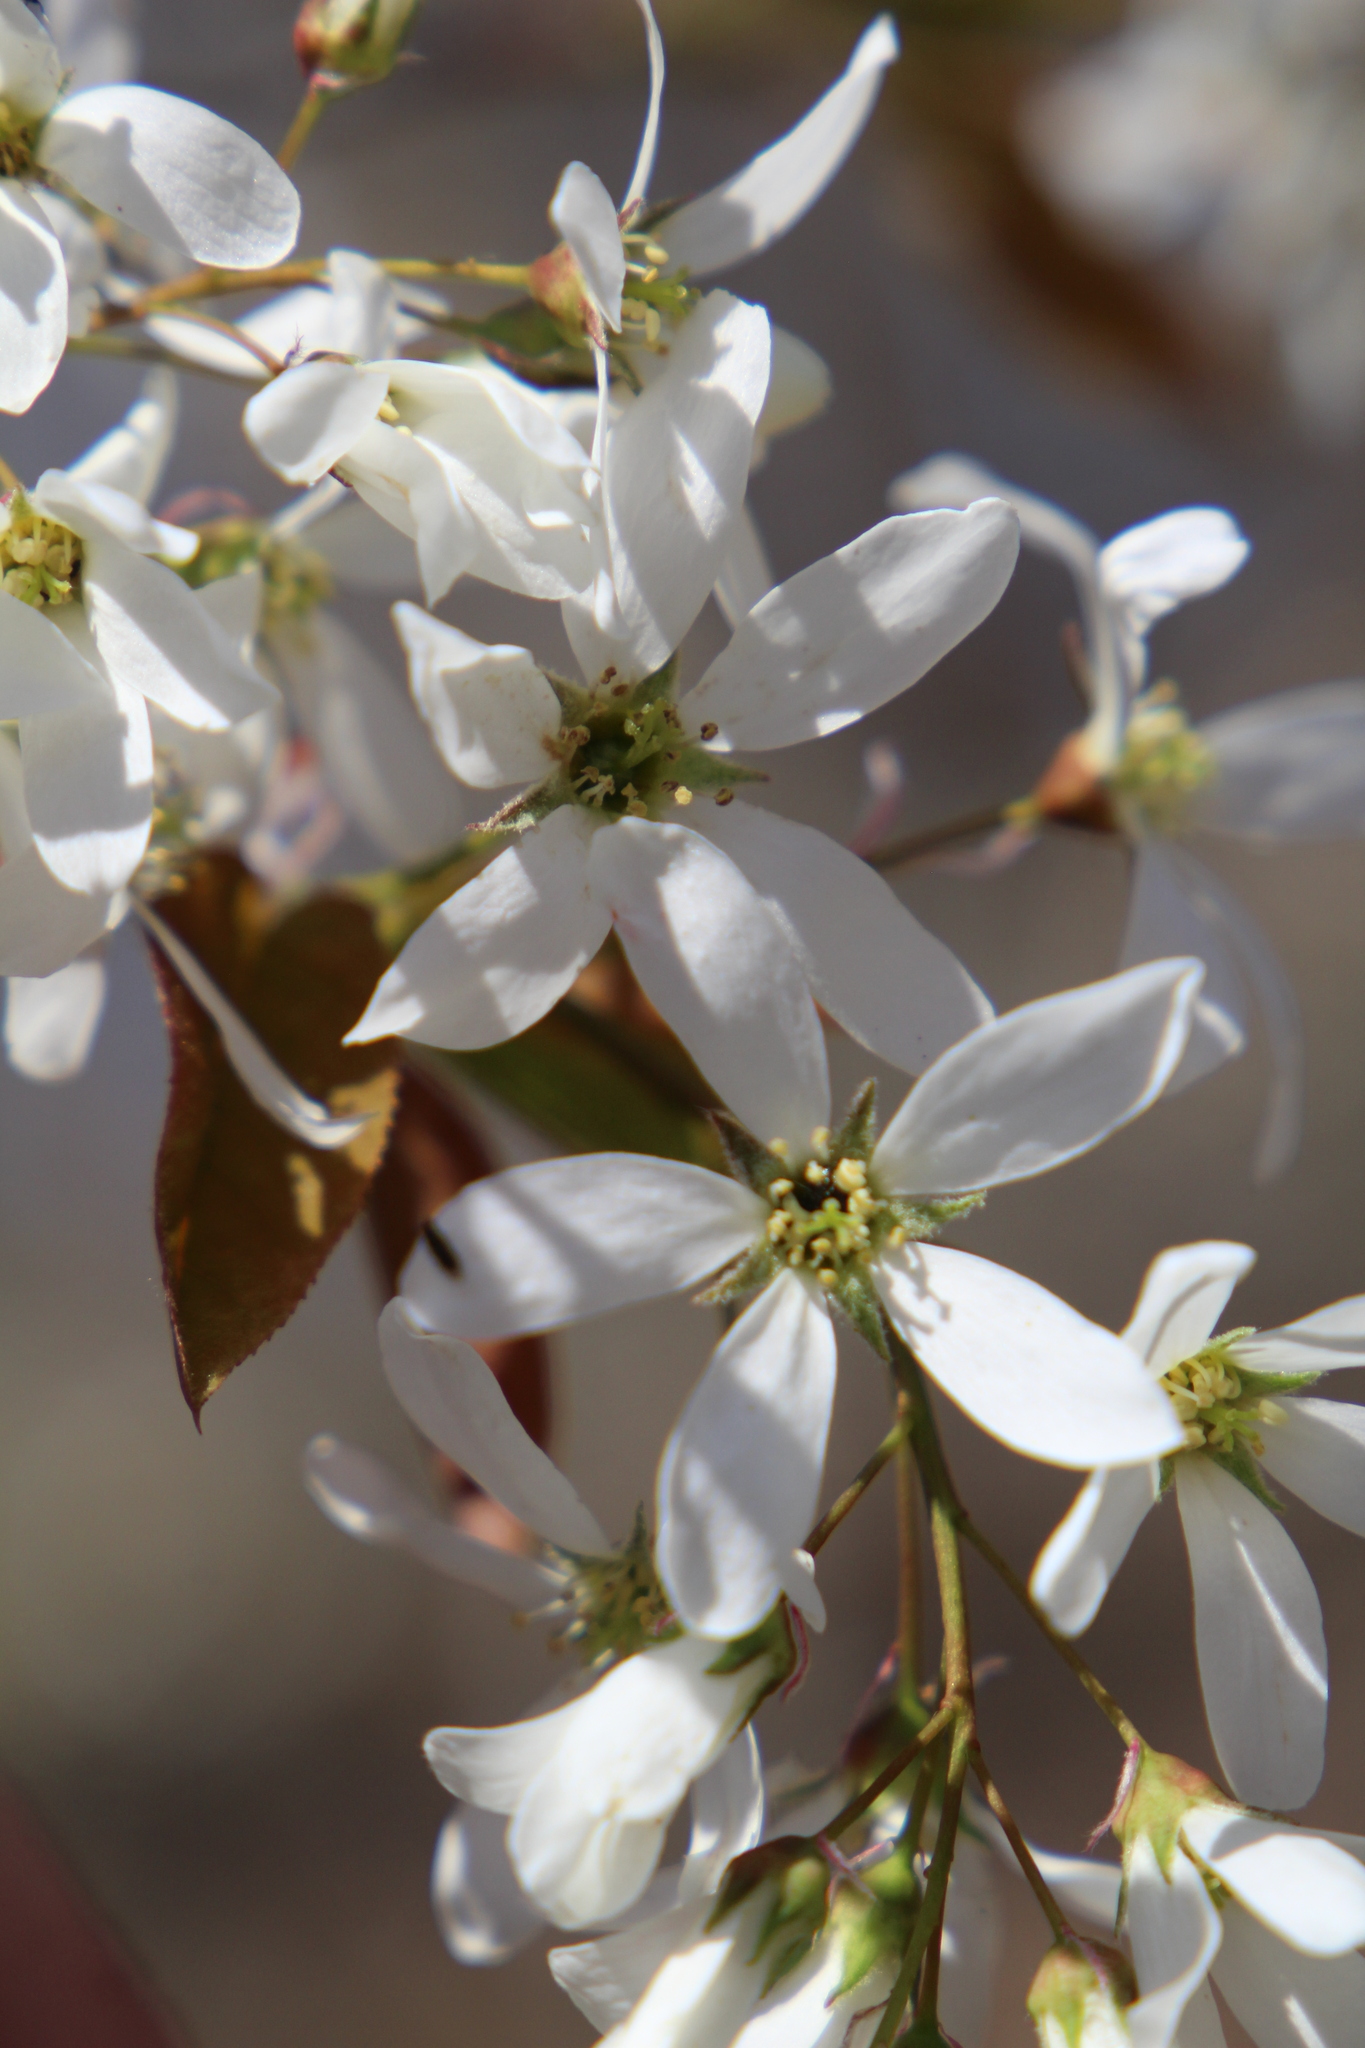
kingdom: Plantae
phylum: Tracheophyta
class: Magnoliopsida
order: Rosales
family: Rosaceae
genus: Amelanchier
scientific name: Amelanchier laevis
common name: Allegheny serviceberry
